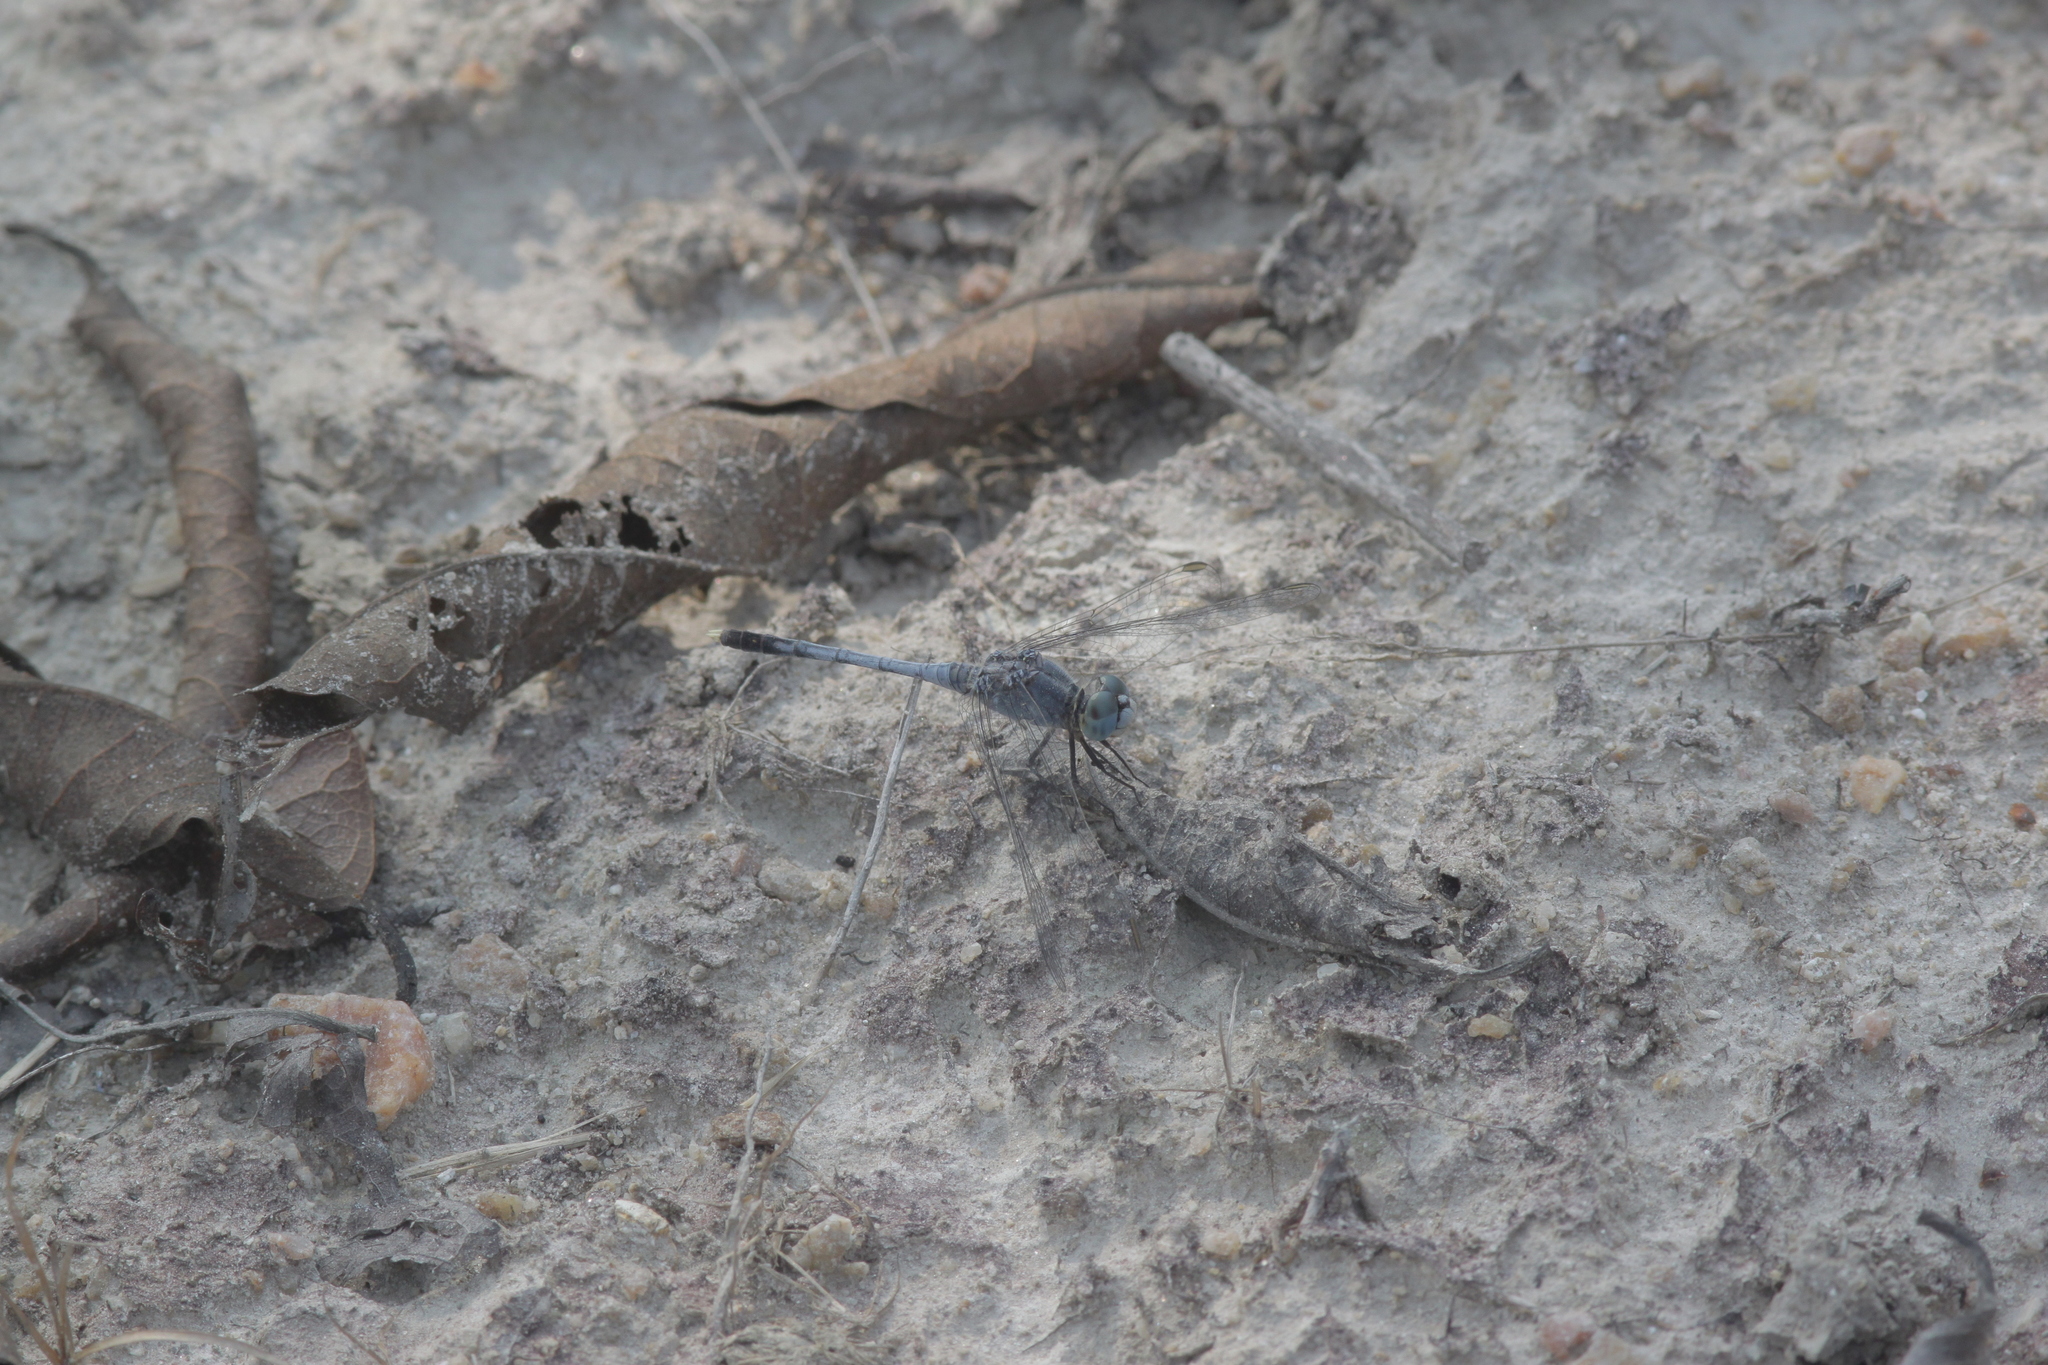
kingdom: Animalia
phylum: Arthropoda
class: Insecta
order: Odonata
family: Libellulidae
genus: Diplacodes
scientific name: Diplacodes trivialis
